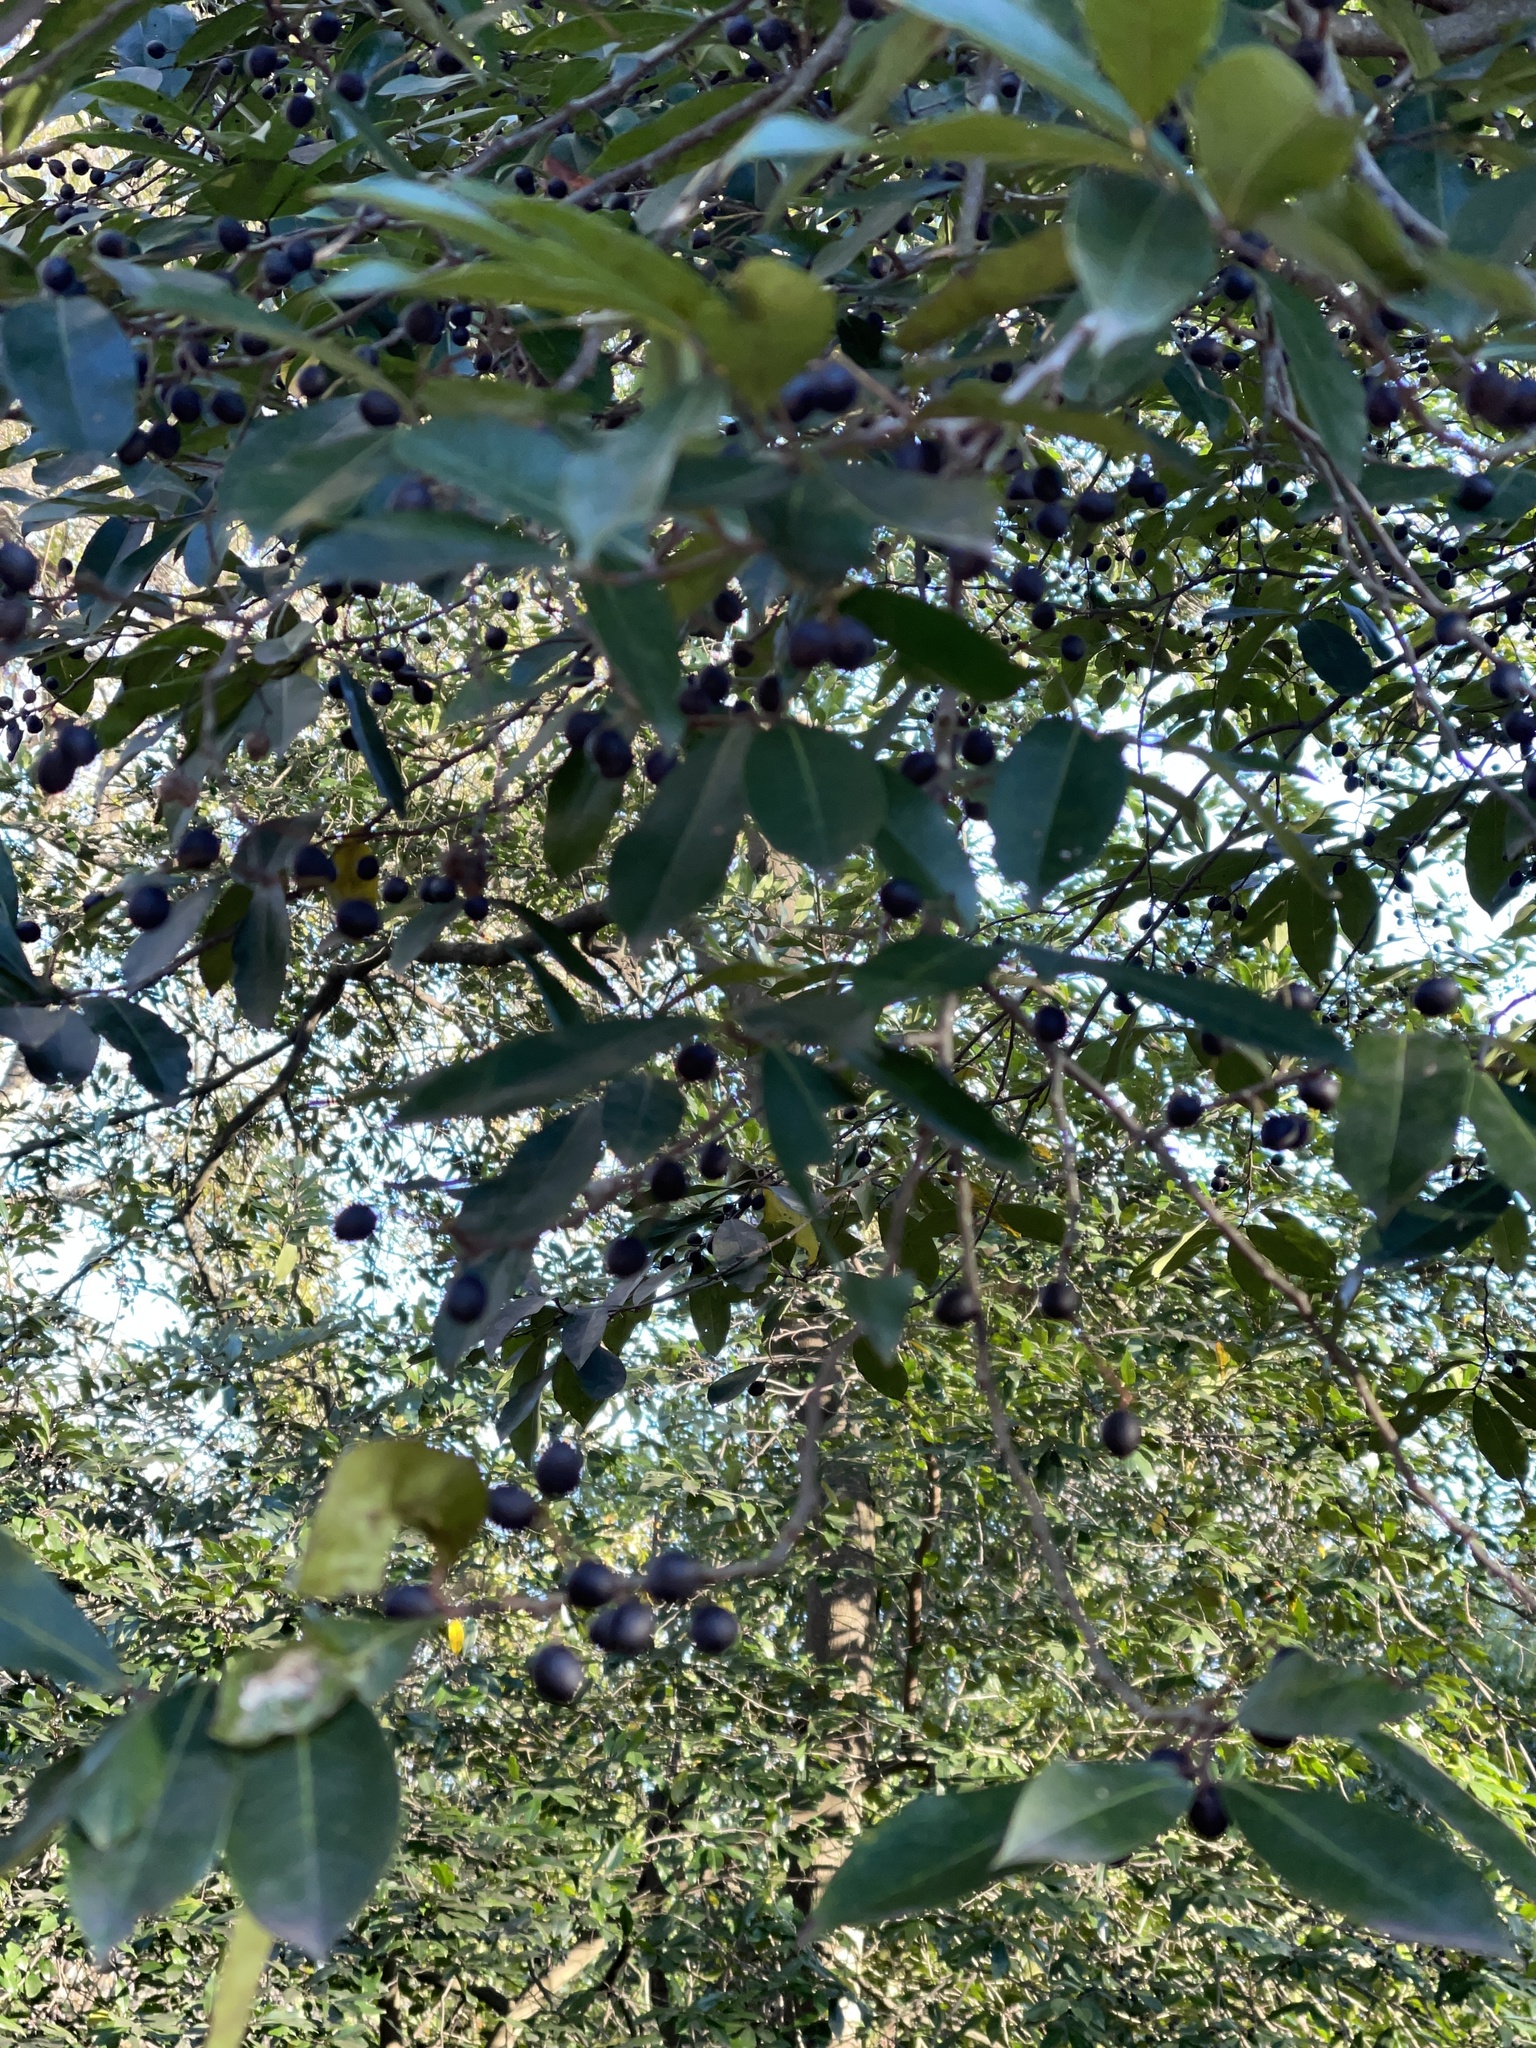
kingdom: Plantae
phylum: Tracheophyta
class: Magnoliopsida
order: Lamiales
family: Oleaceae
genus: Ligustrum
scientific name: Ligustrum lucidum
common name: Glossy privet
